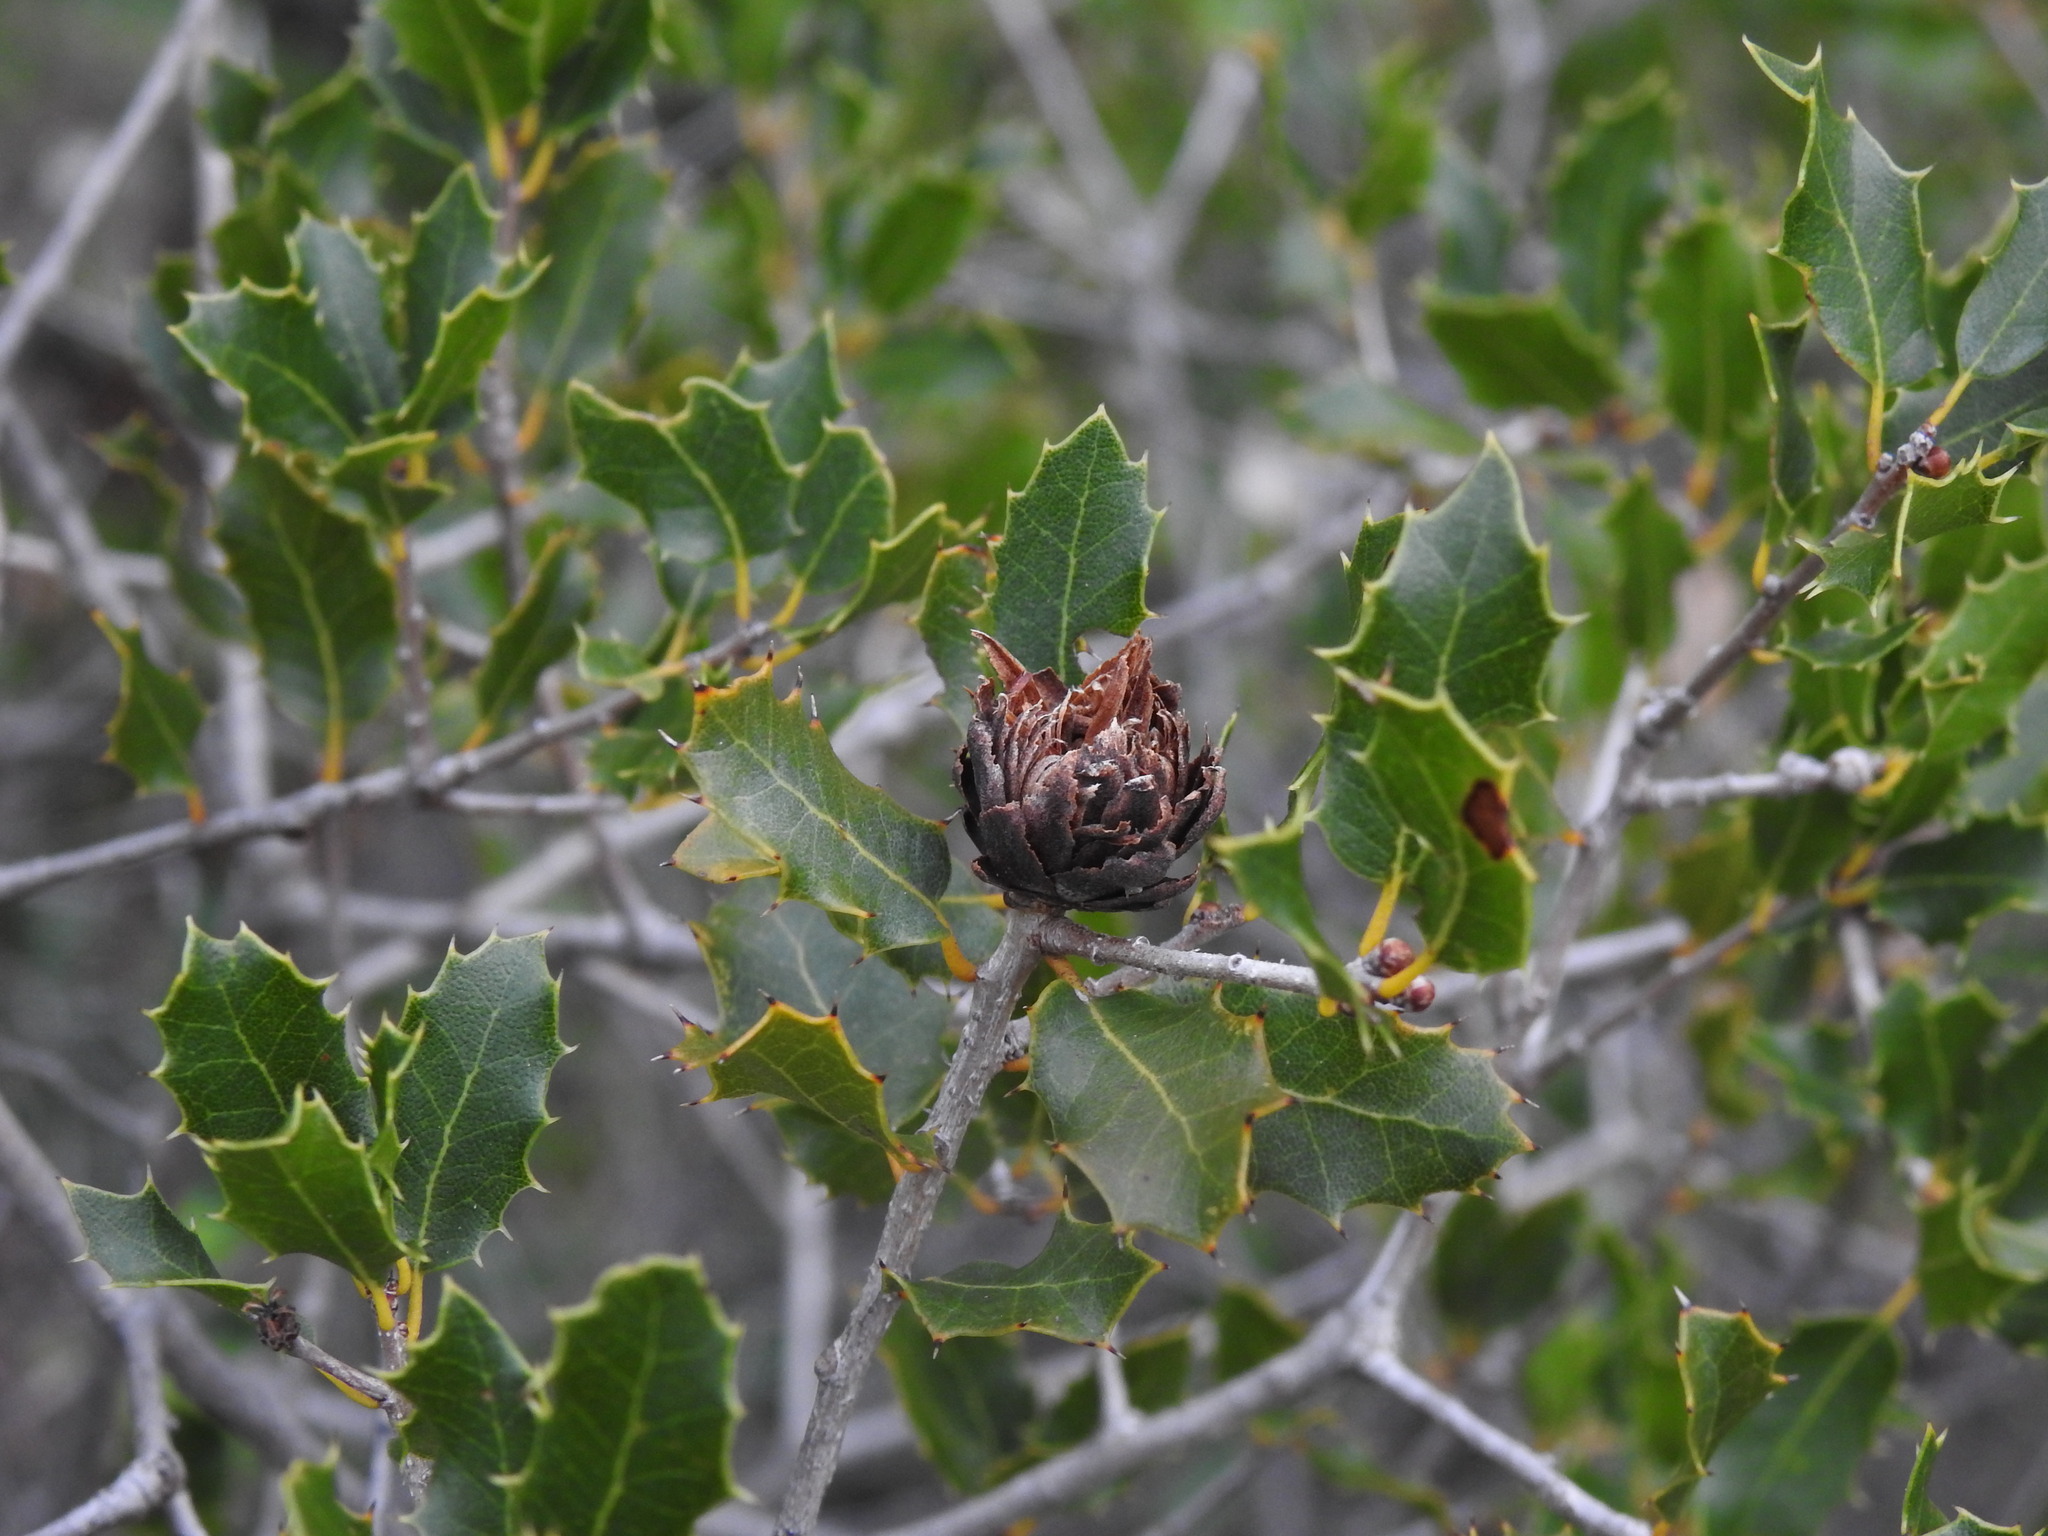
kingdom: Animalia
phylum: Arthropoda
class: Insecta
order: Diptera
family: Cecidomyiidae
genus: Blastodiplosis
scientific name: Blastodiplosis cocciferae
